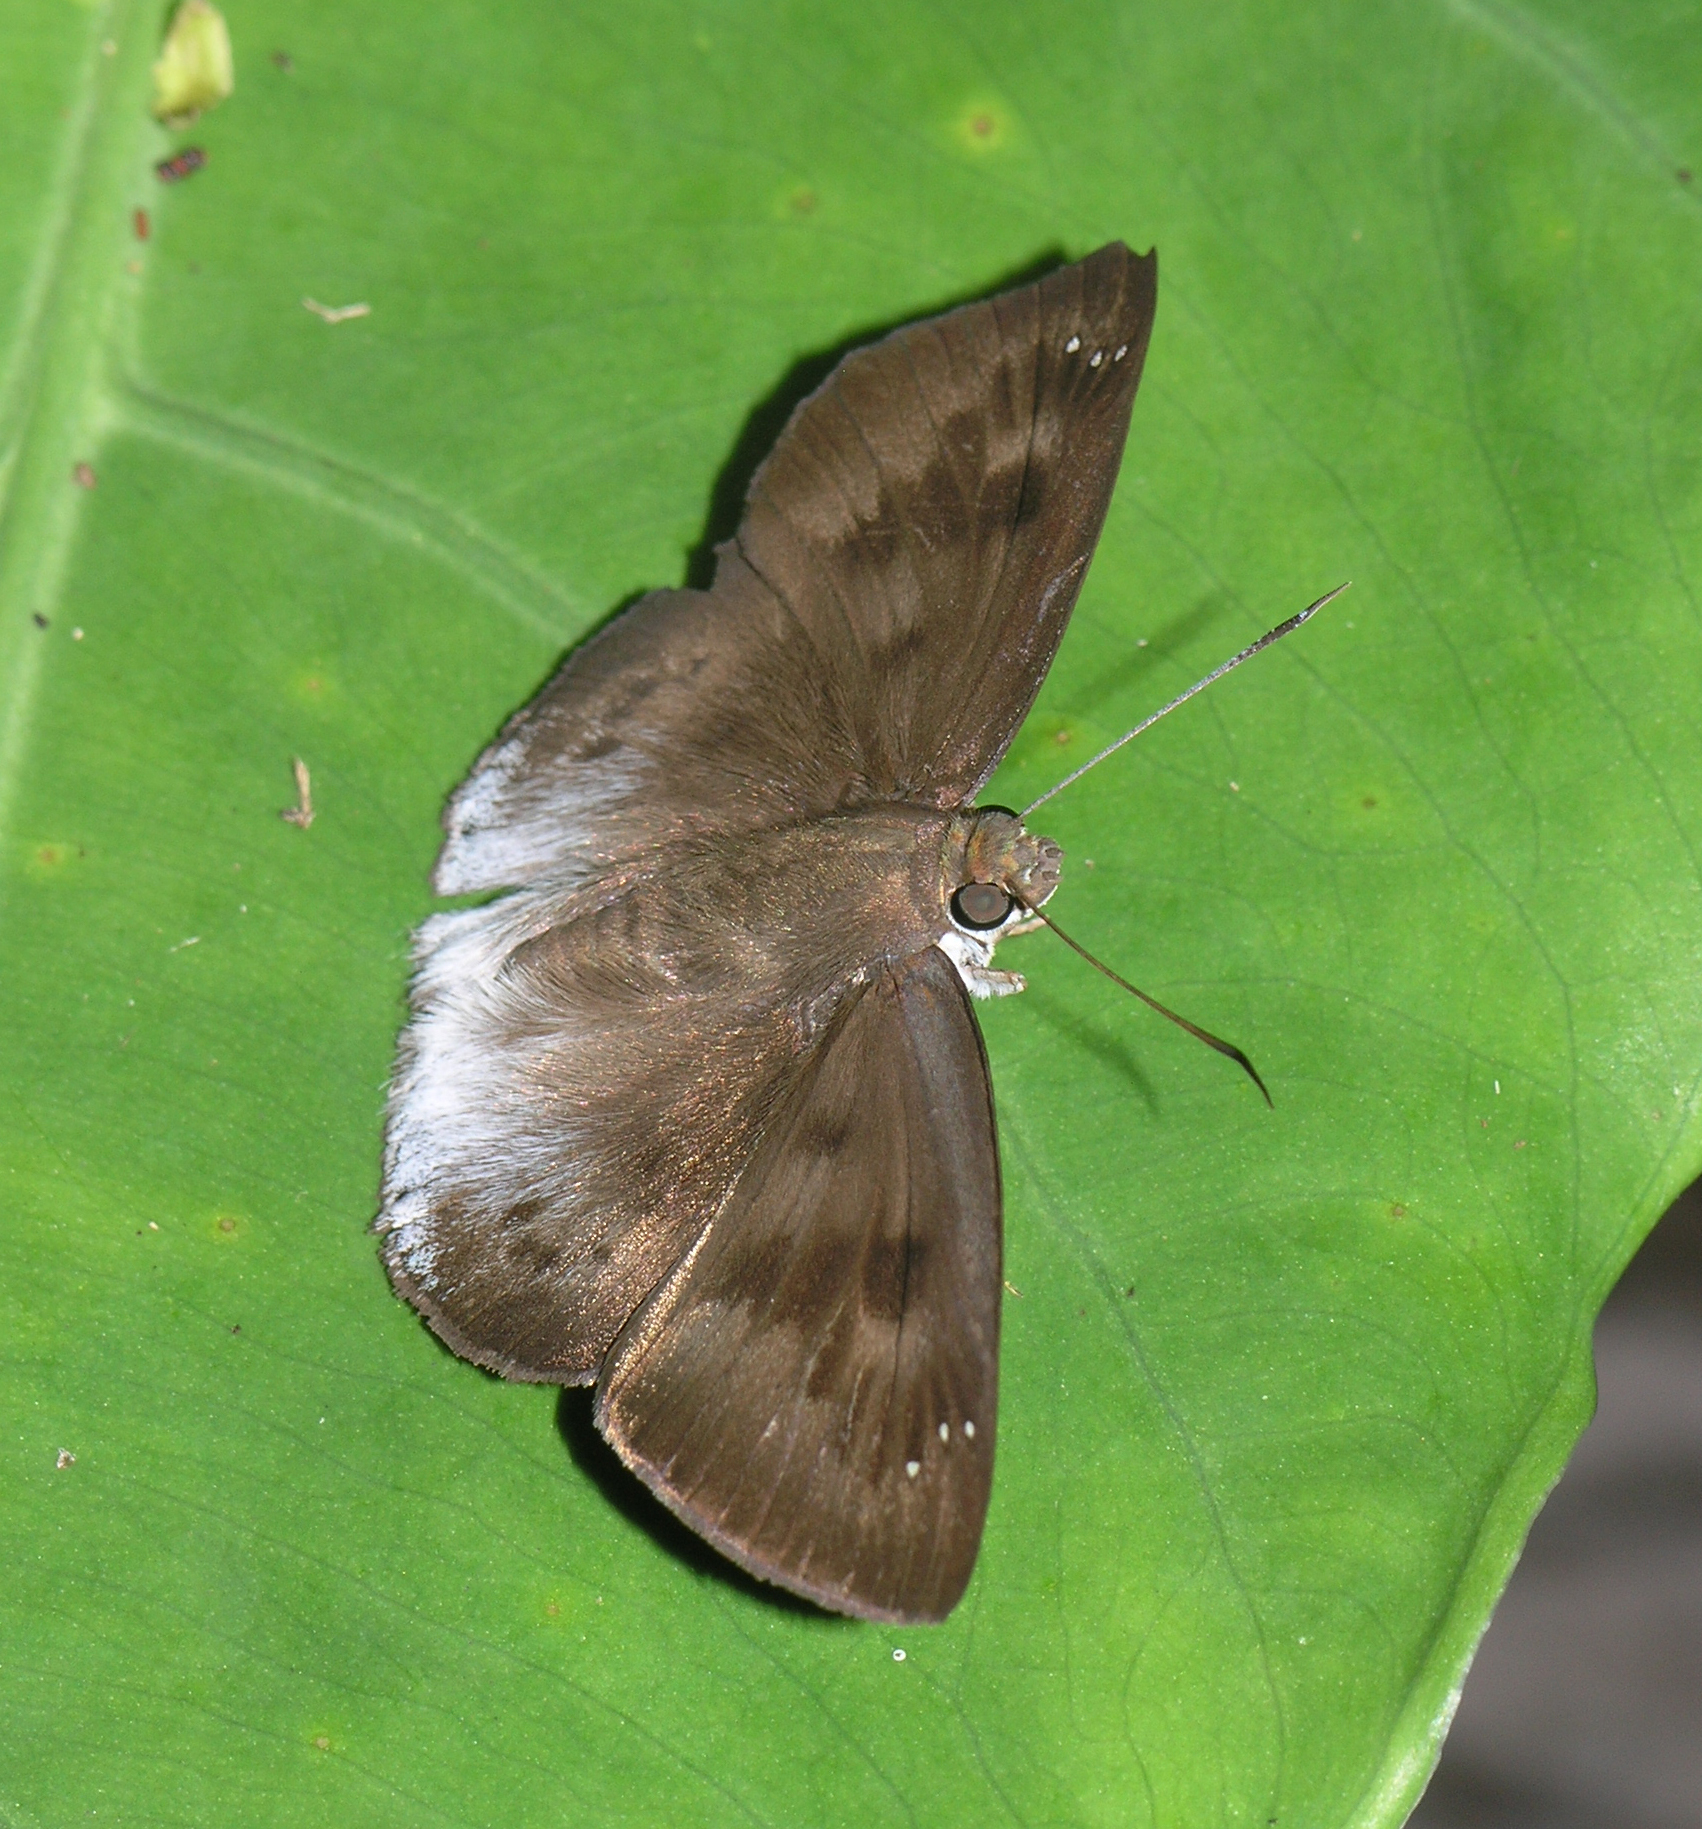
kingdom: Animalia
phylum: Arthropoda
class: Insecta
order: Lepidoptera
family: Hesperiidae
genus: Tagiades
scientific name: Tagiades gana
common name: Suffused snow flat
